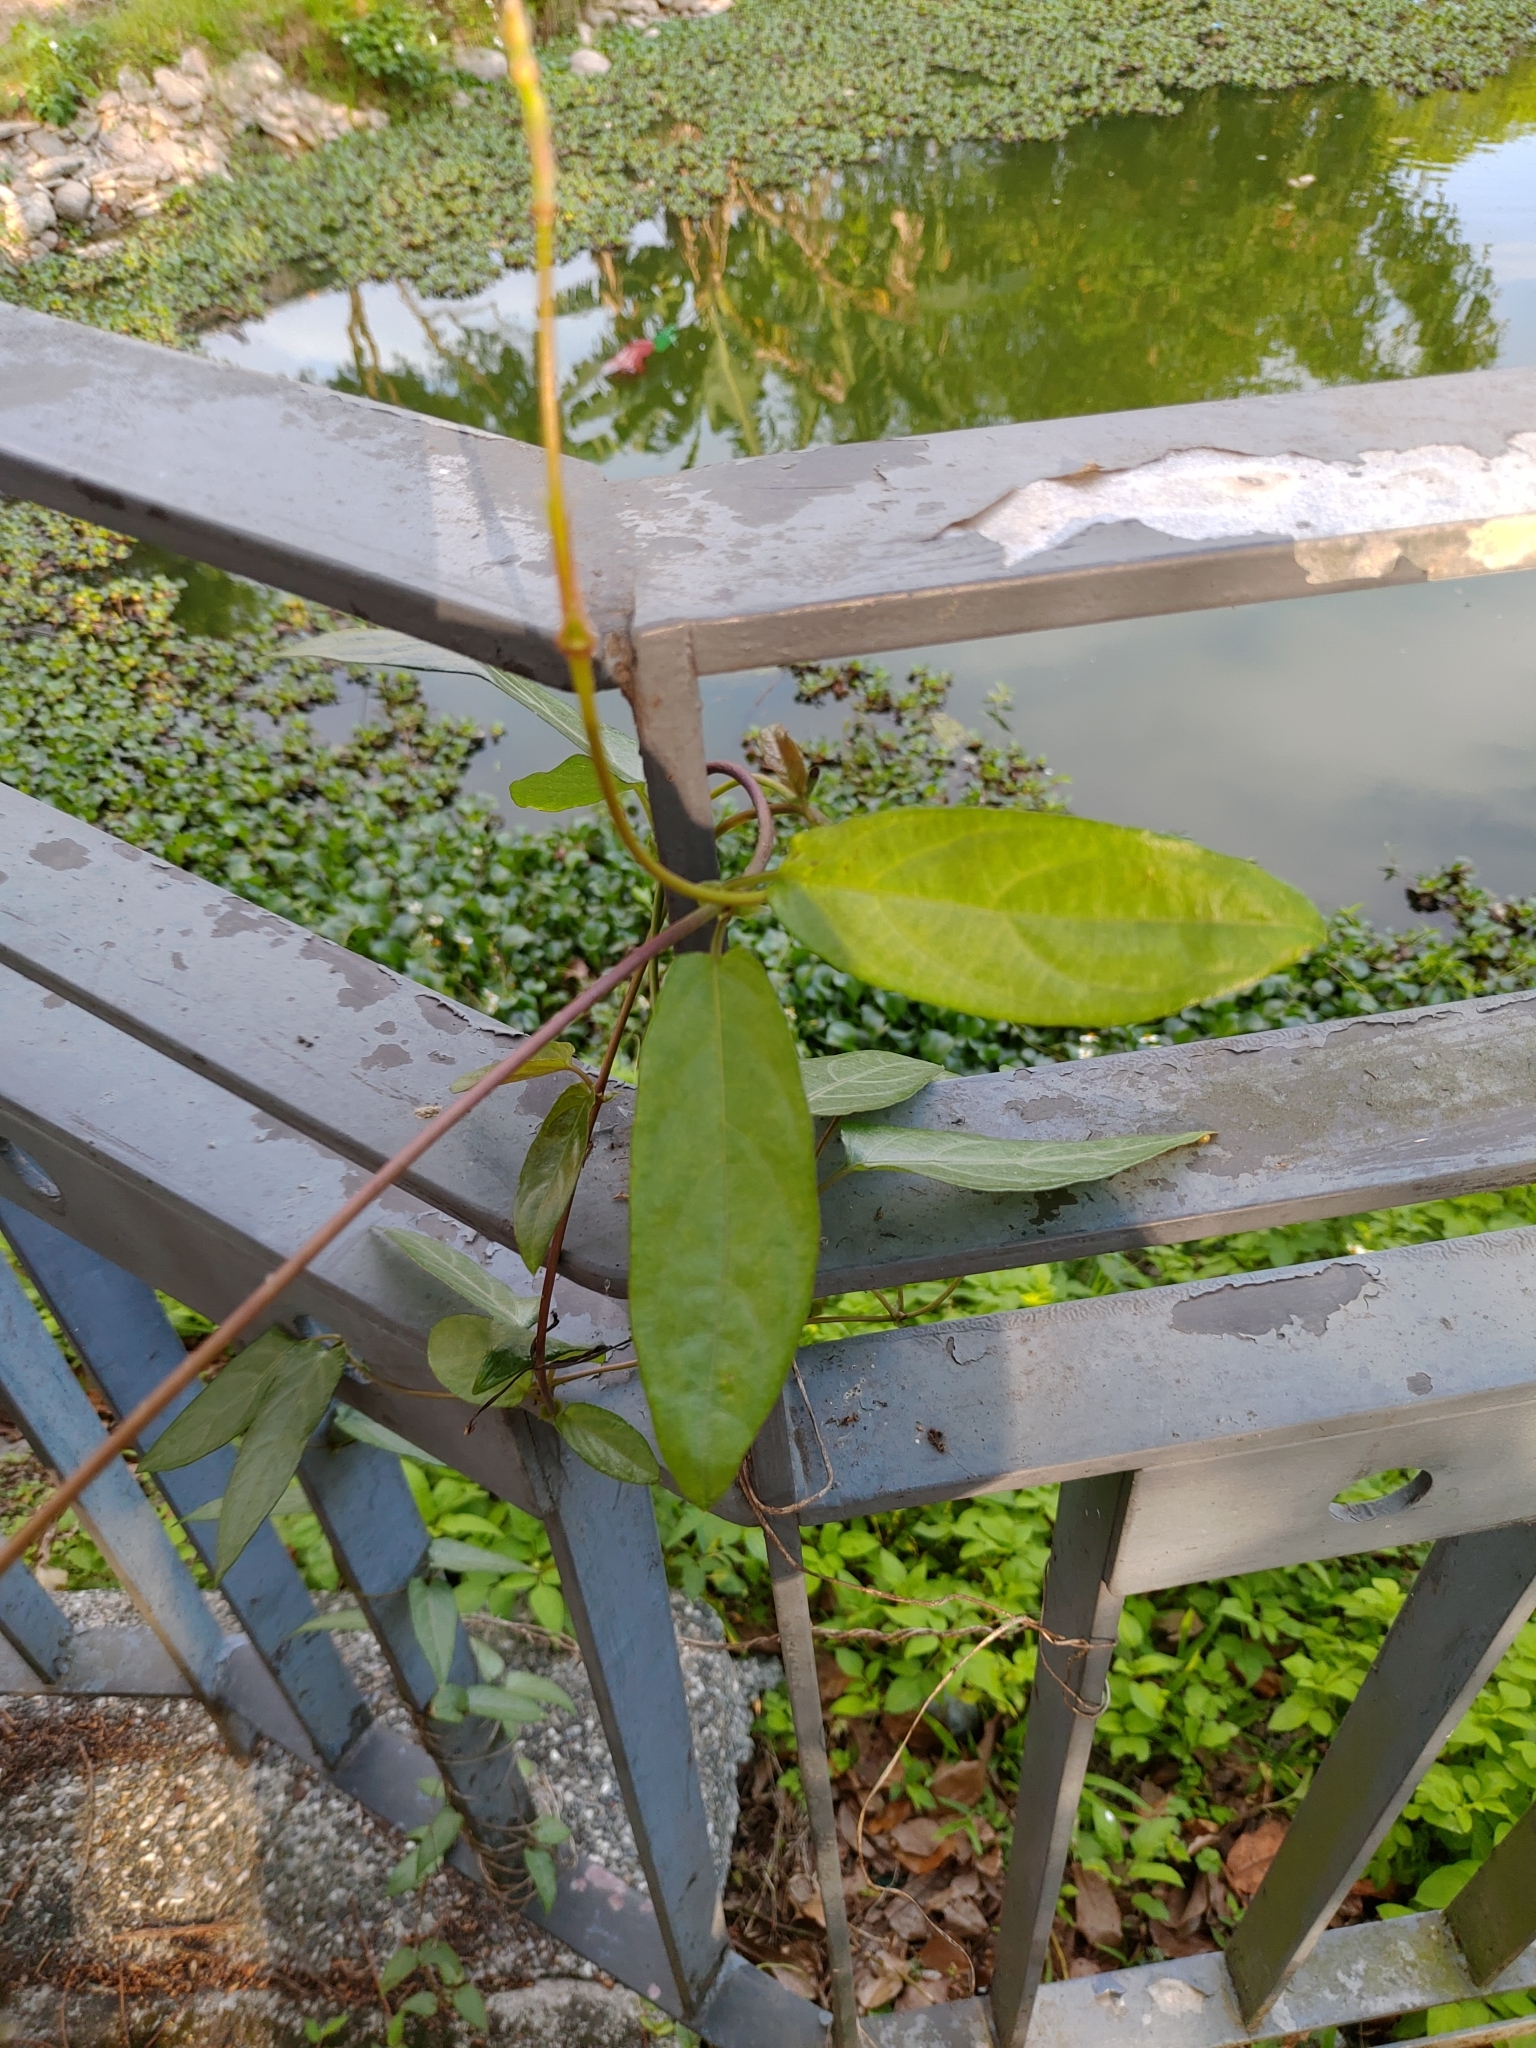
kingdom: Plantae
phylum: Tracheophyta
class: Magnoliopsida
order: Gentianales
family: Rubiaceae
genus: Paederia
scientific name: Paederia foetida
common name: Stinkvine
